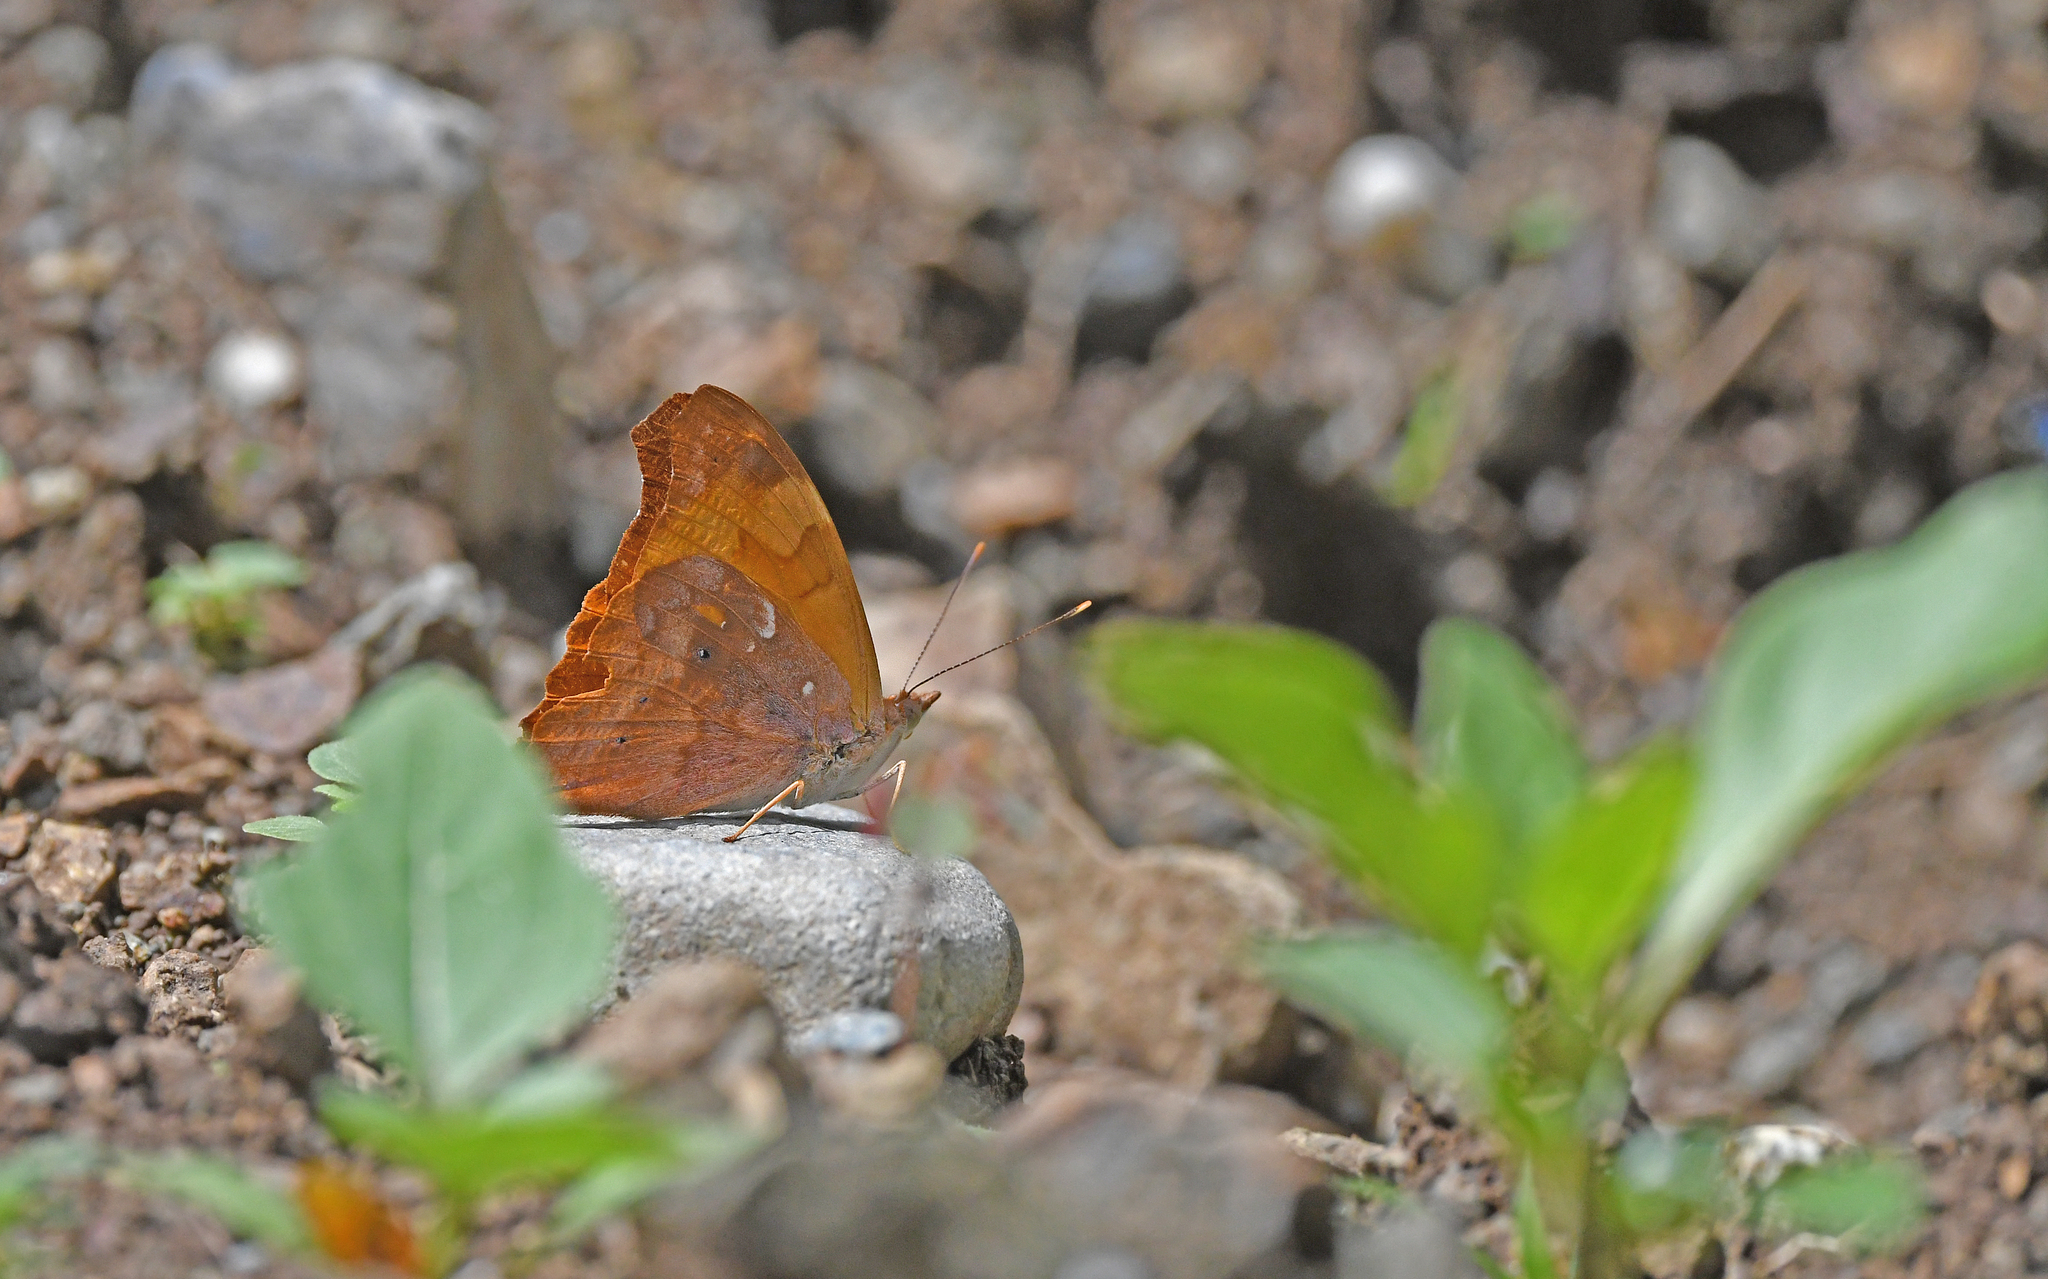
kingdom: Animalia
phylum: Arthropoda
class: Insecta
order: Lepidoptera
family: Nymphalidae
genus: Temenis
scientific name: Temenis laothoe
